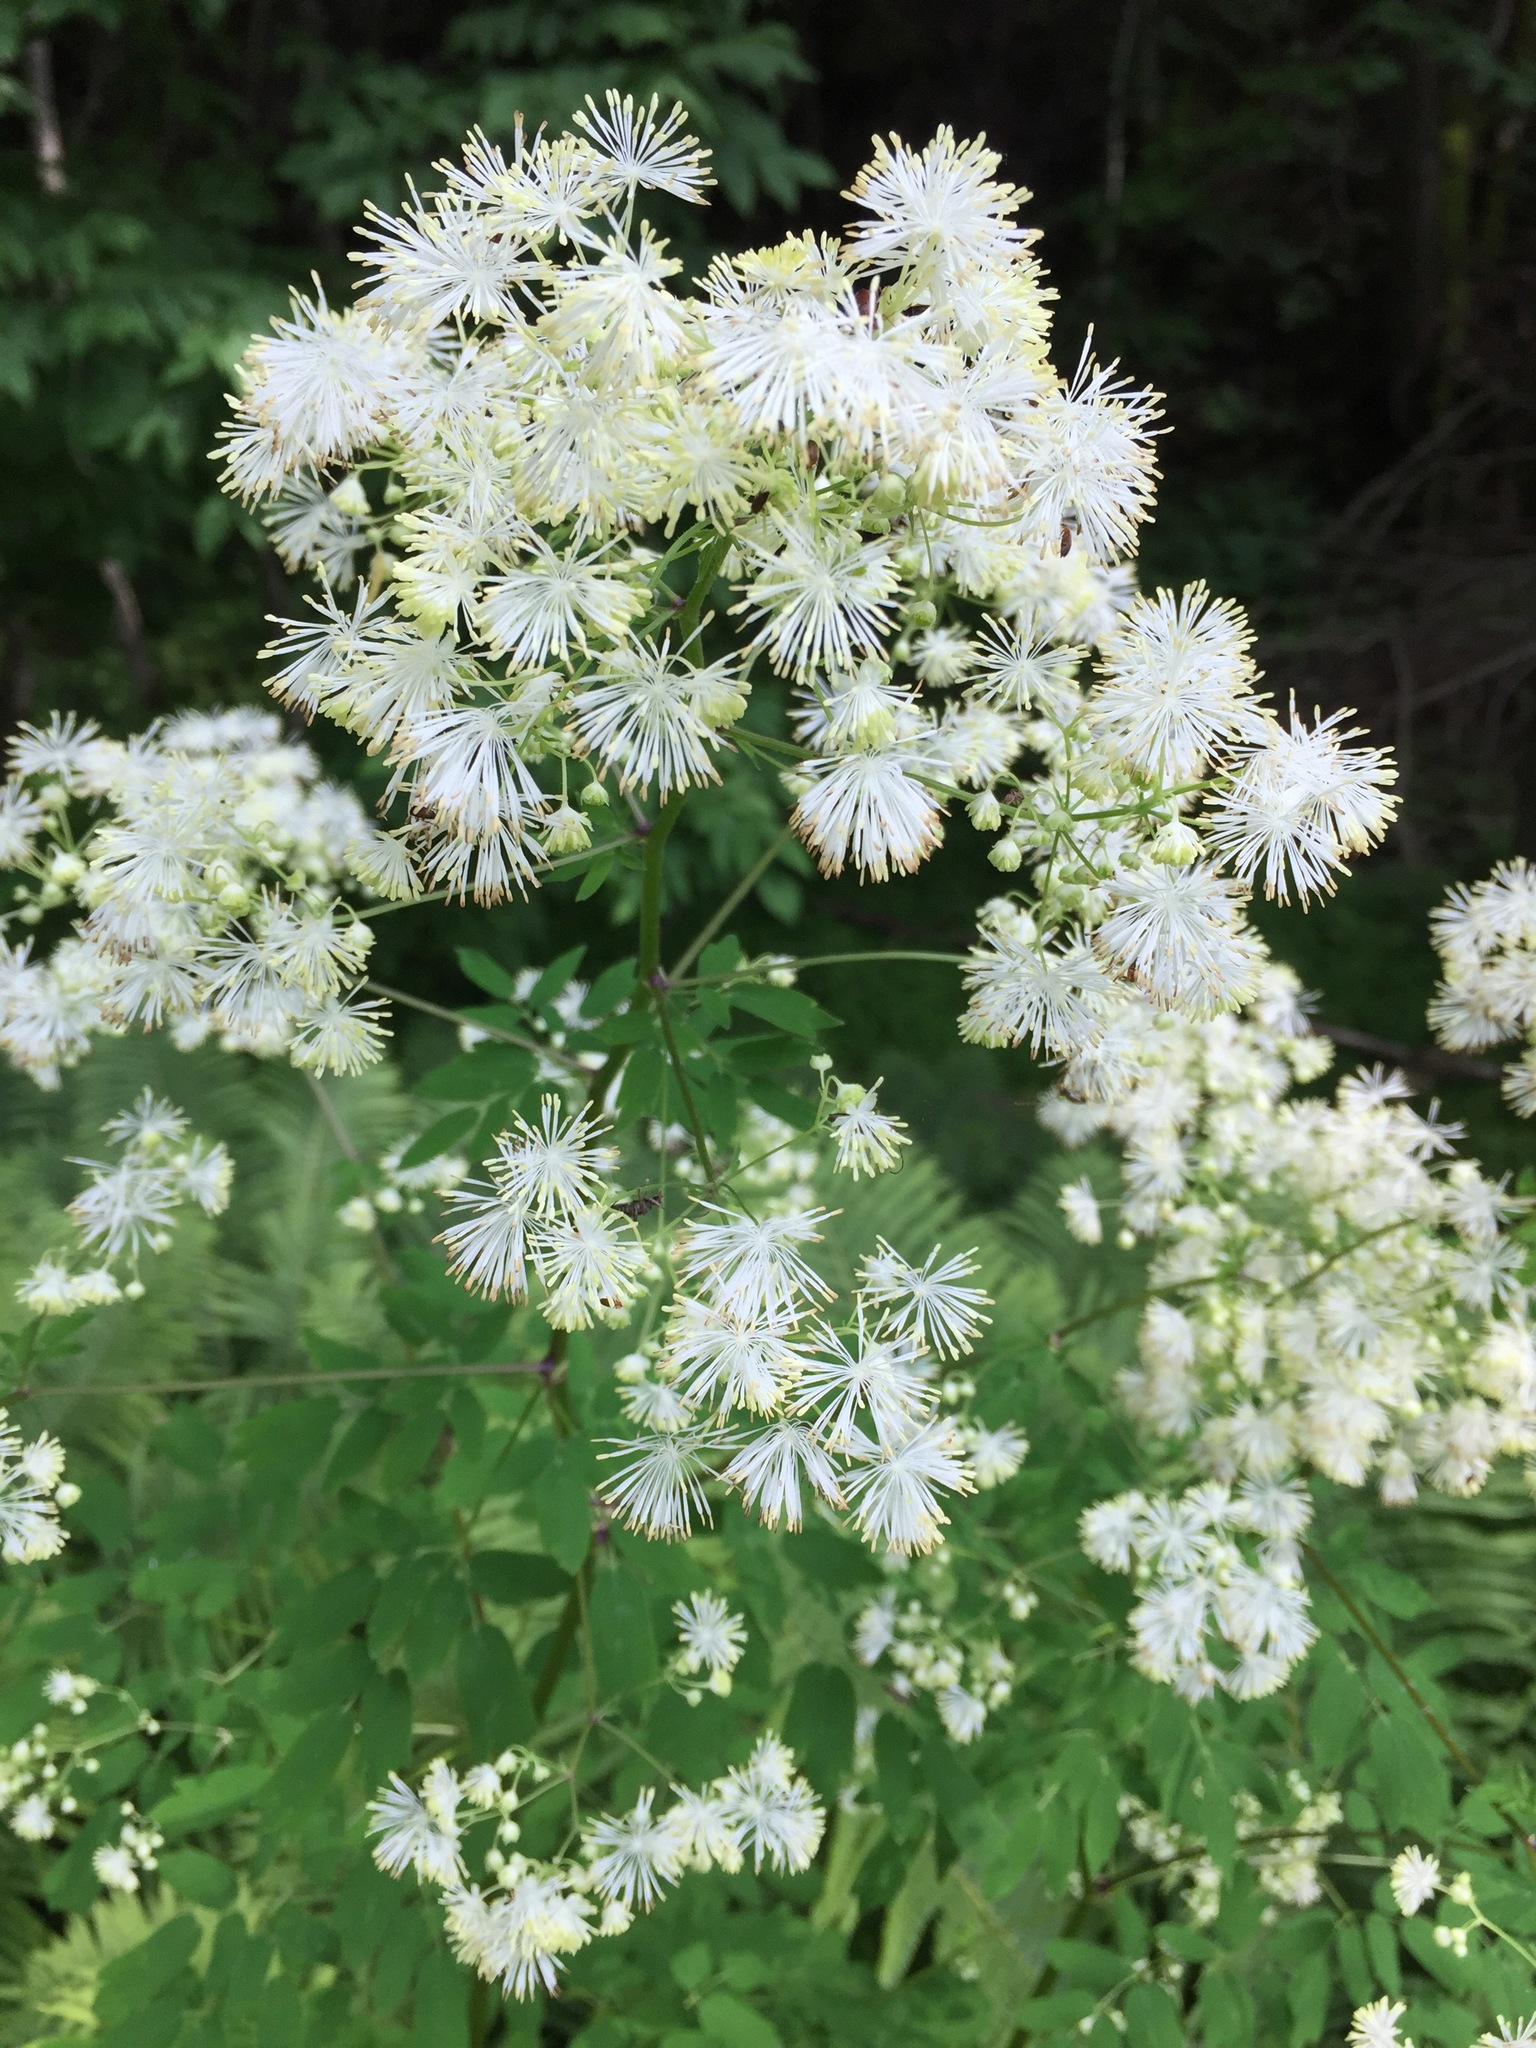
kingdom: Plantae
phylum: Tracheophyta
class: Magnoliopsida
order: Ranunculales
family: Ranunculaceae
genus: Thalictrum
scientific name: Thalictrum pubescens
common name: King-of-the-meadow
